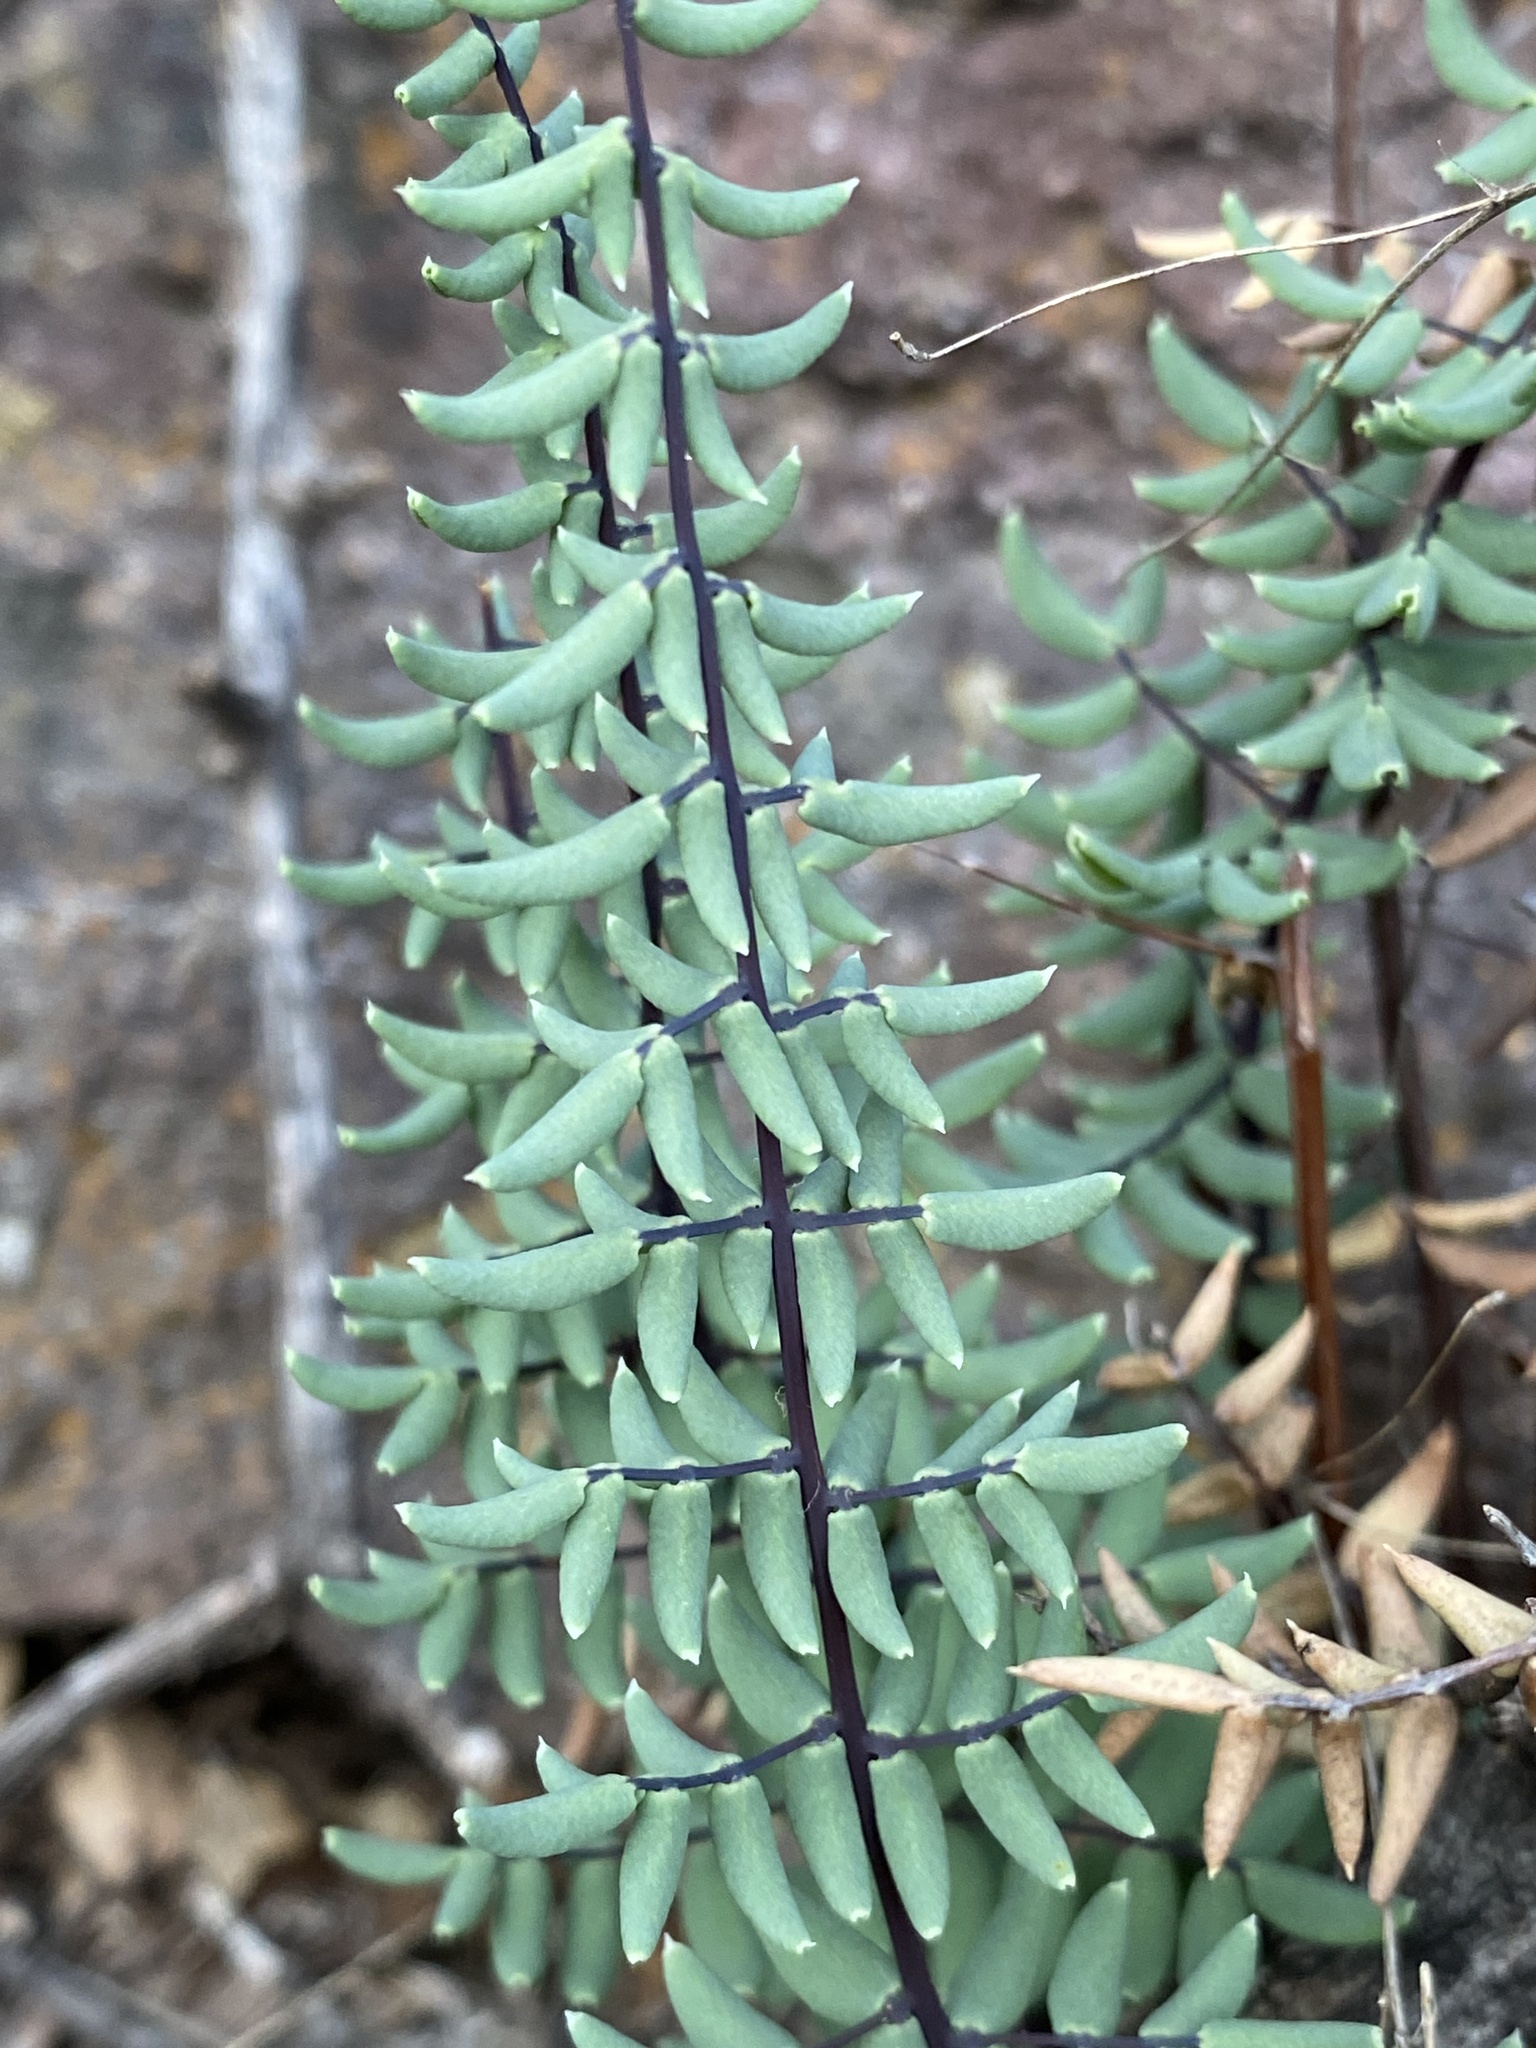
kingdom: Plantae
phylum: Tracheophyta
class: Polypodiopsida
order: Polypodiales
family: Pteridaceae
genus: Pellaea
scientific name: Pellaea truncata
